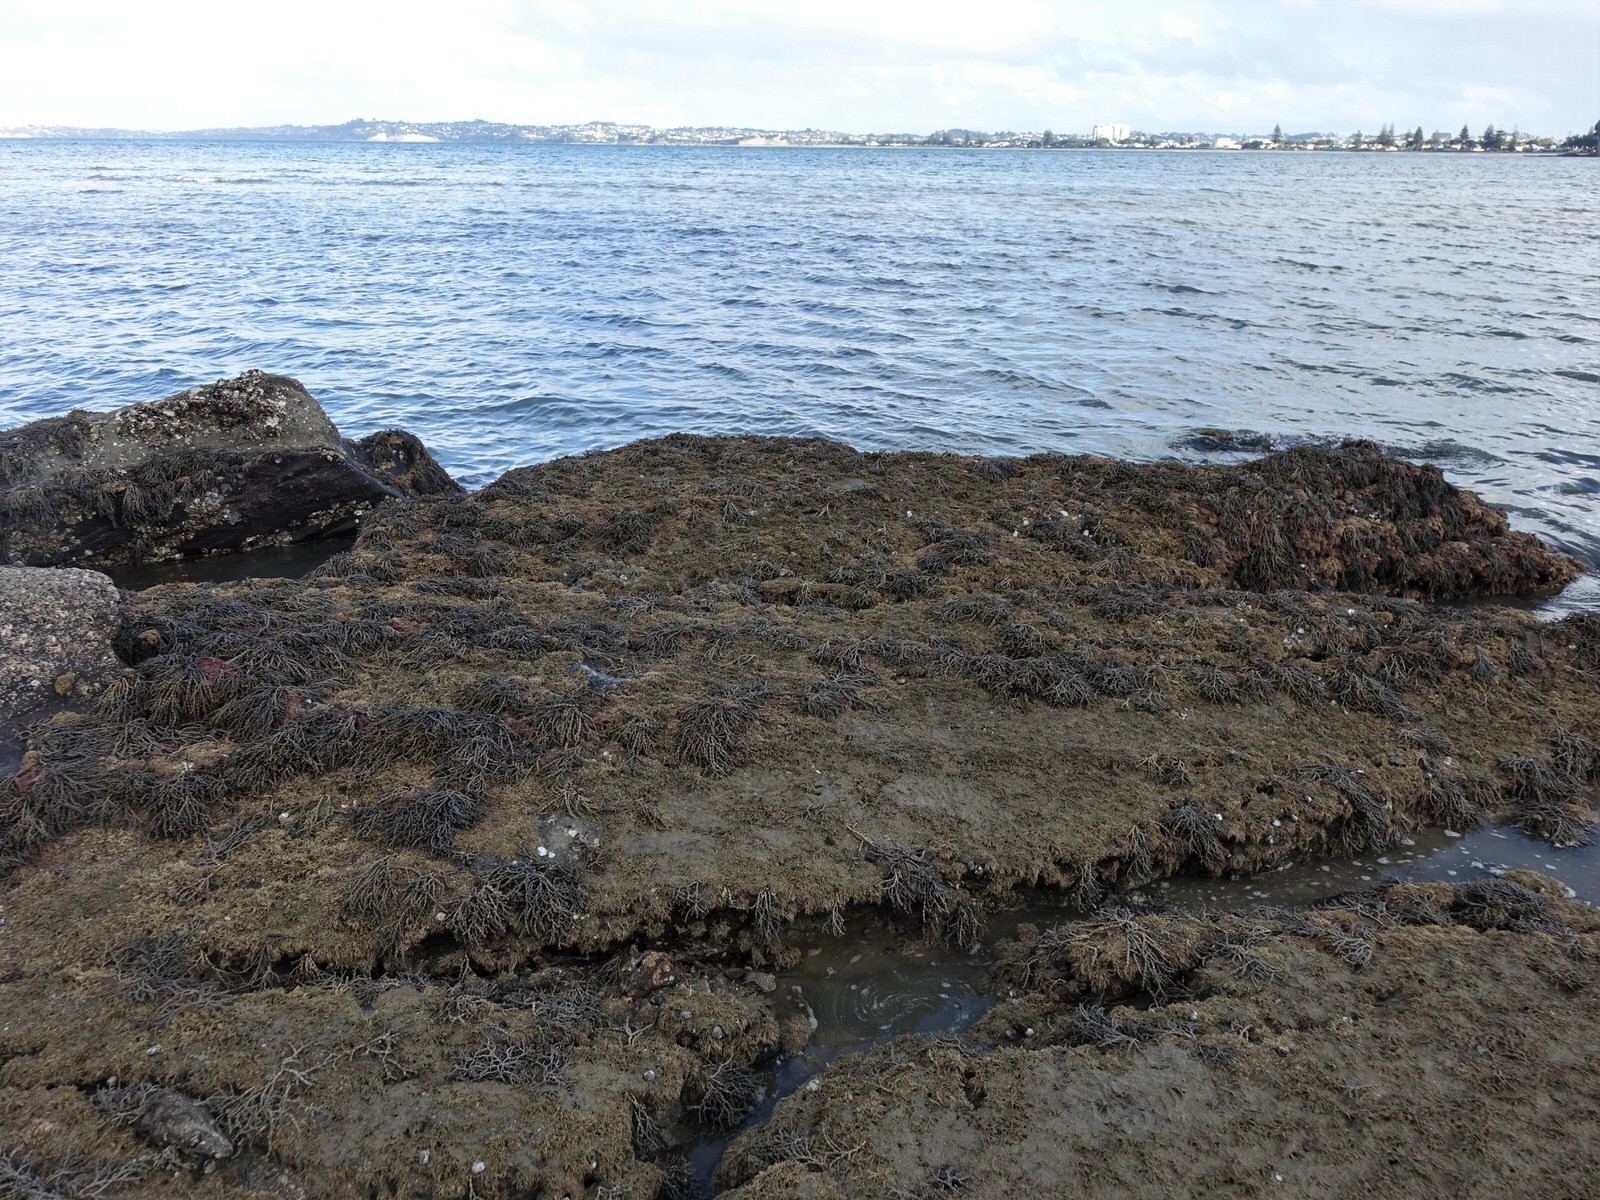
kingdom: Animalia
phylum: Mollusca
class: Cephalopoda
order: Octopoda
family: Octopodidae
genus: Octopus
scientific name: Octopus tetricus
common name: Sydney octopus
